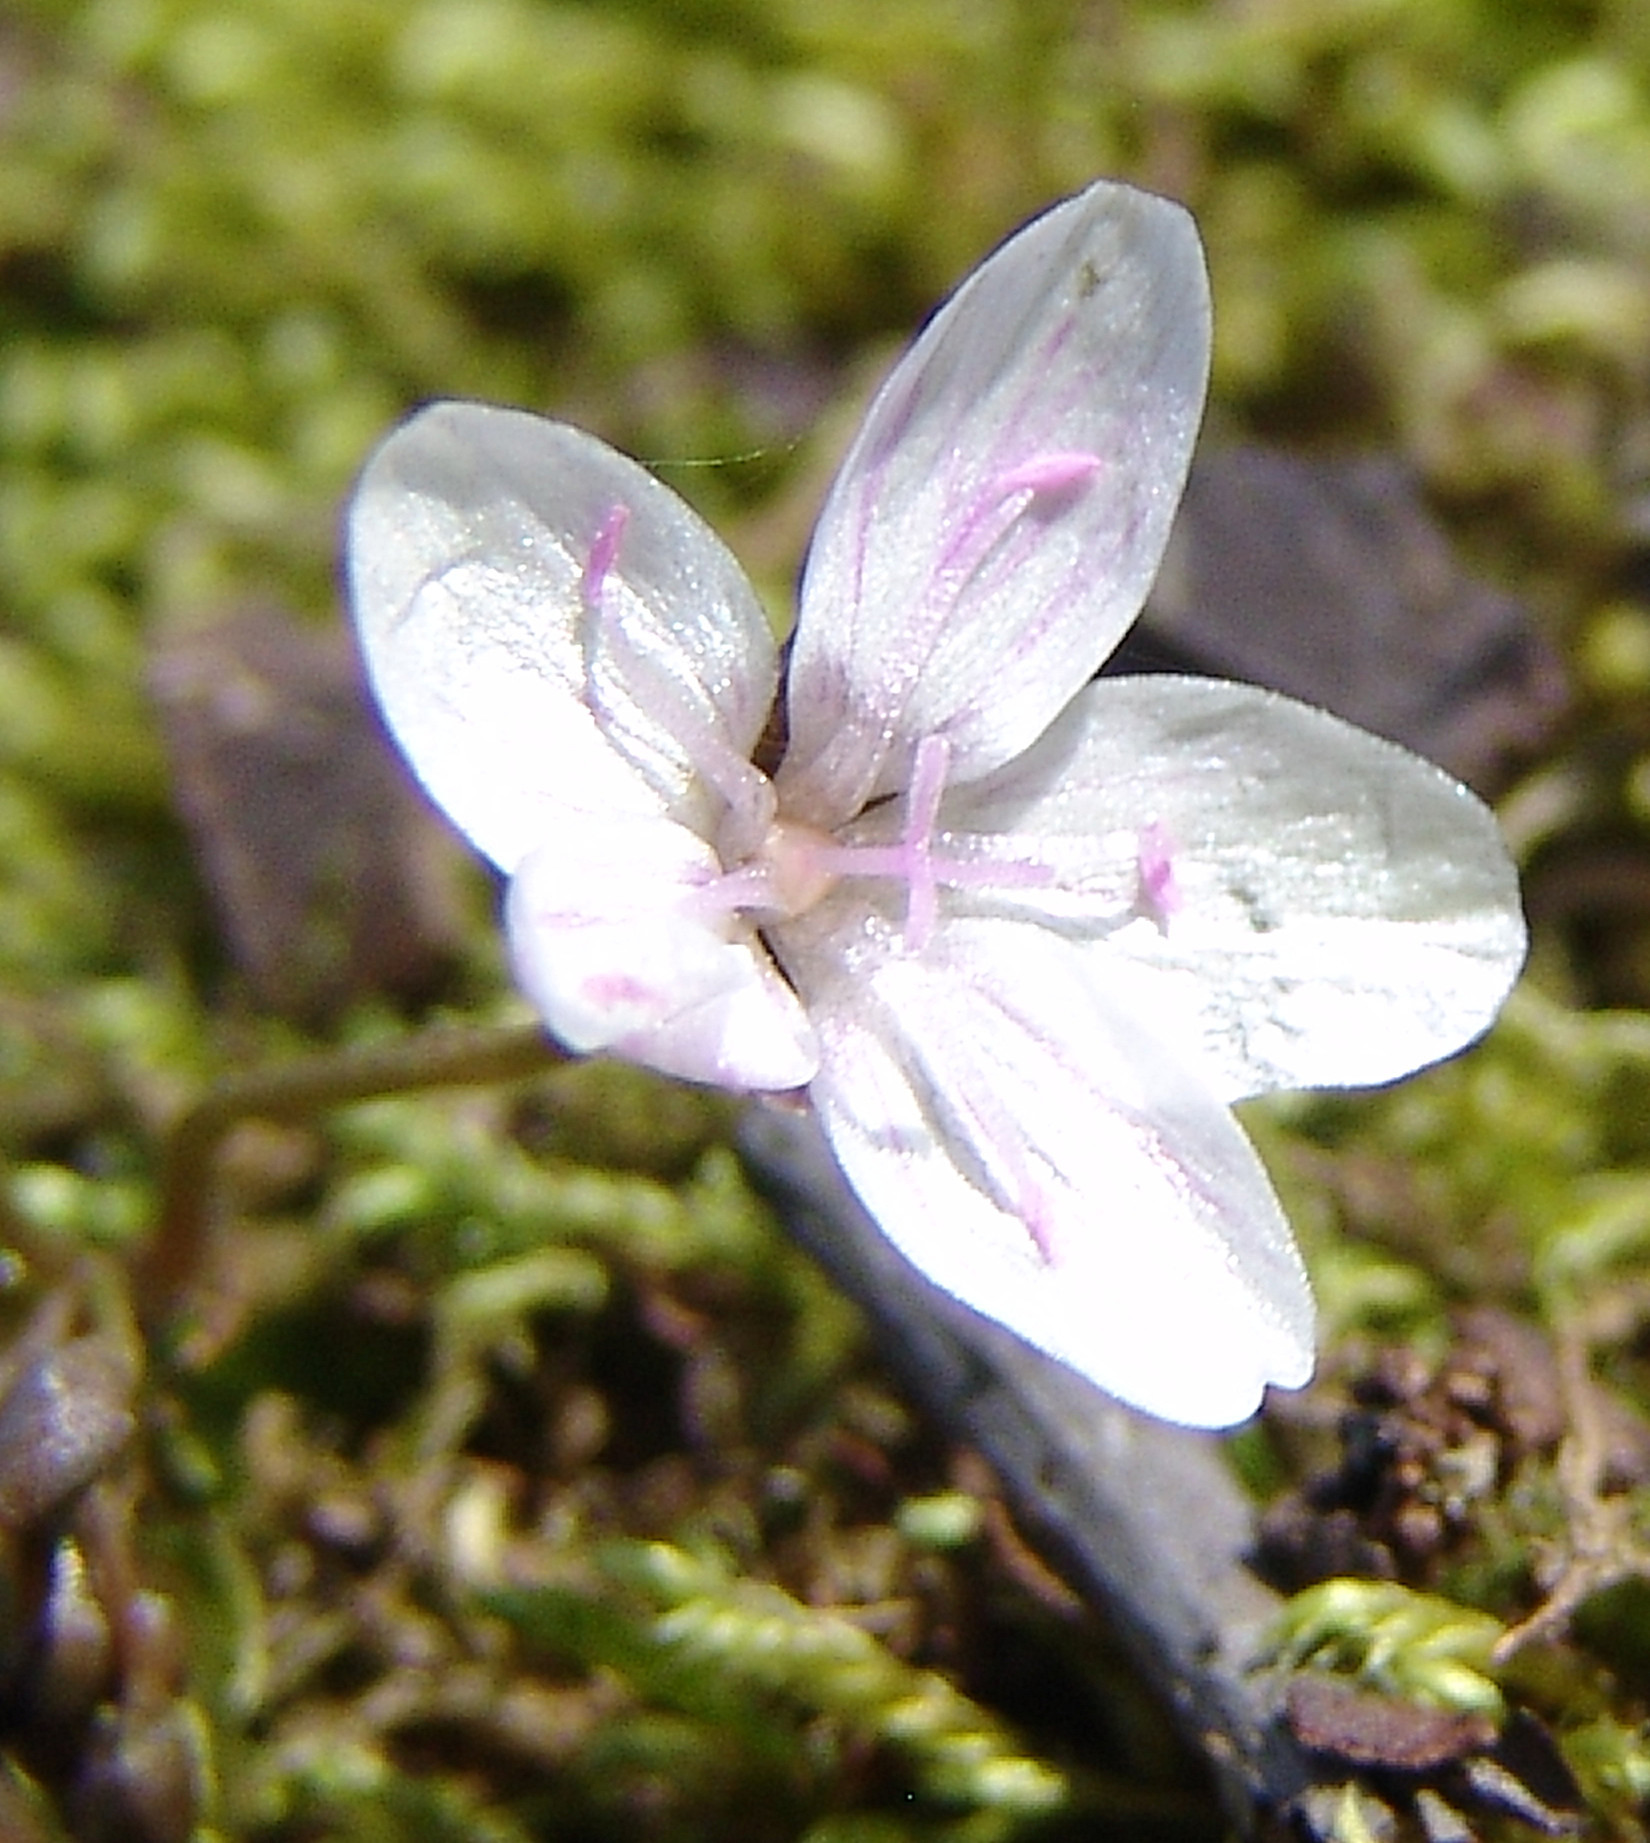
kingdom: Plantae
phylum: Tracheophyta
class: Magnoliopsida
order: Caryophyllales
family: Montiaceae
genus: Claytonia
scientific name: Claytonia virginica
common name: Virginia springbeauty
